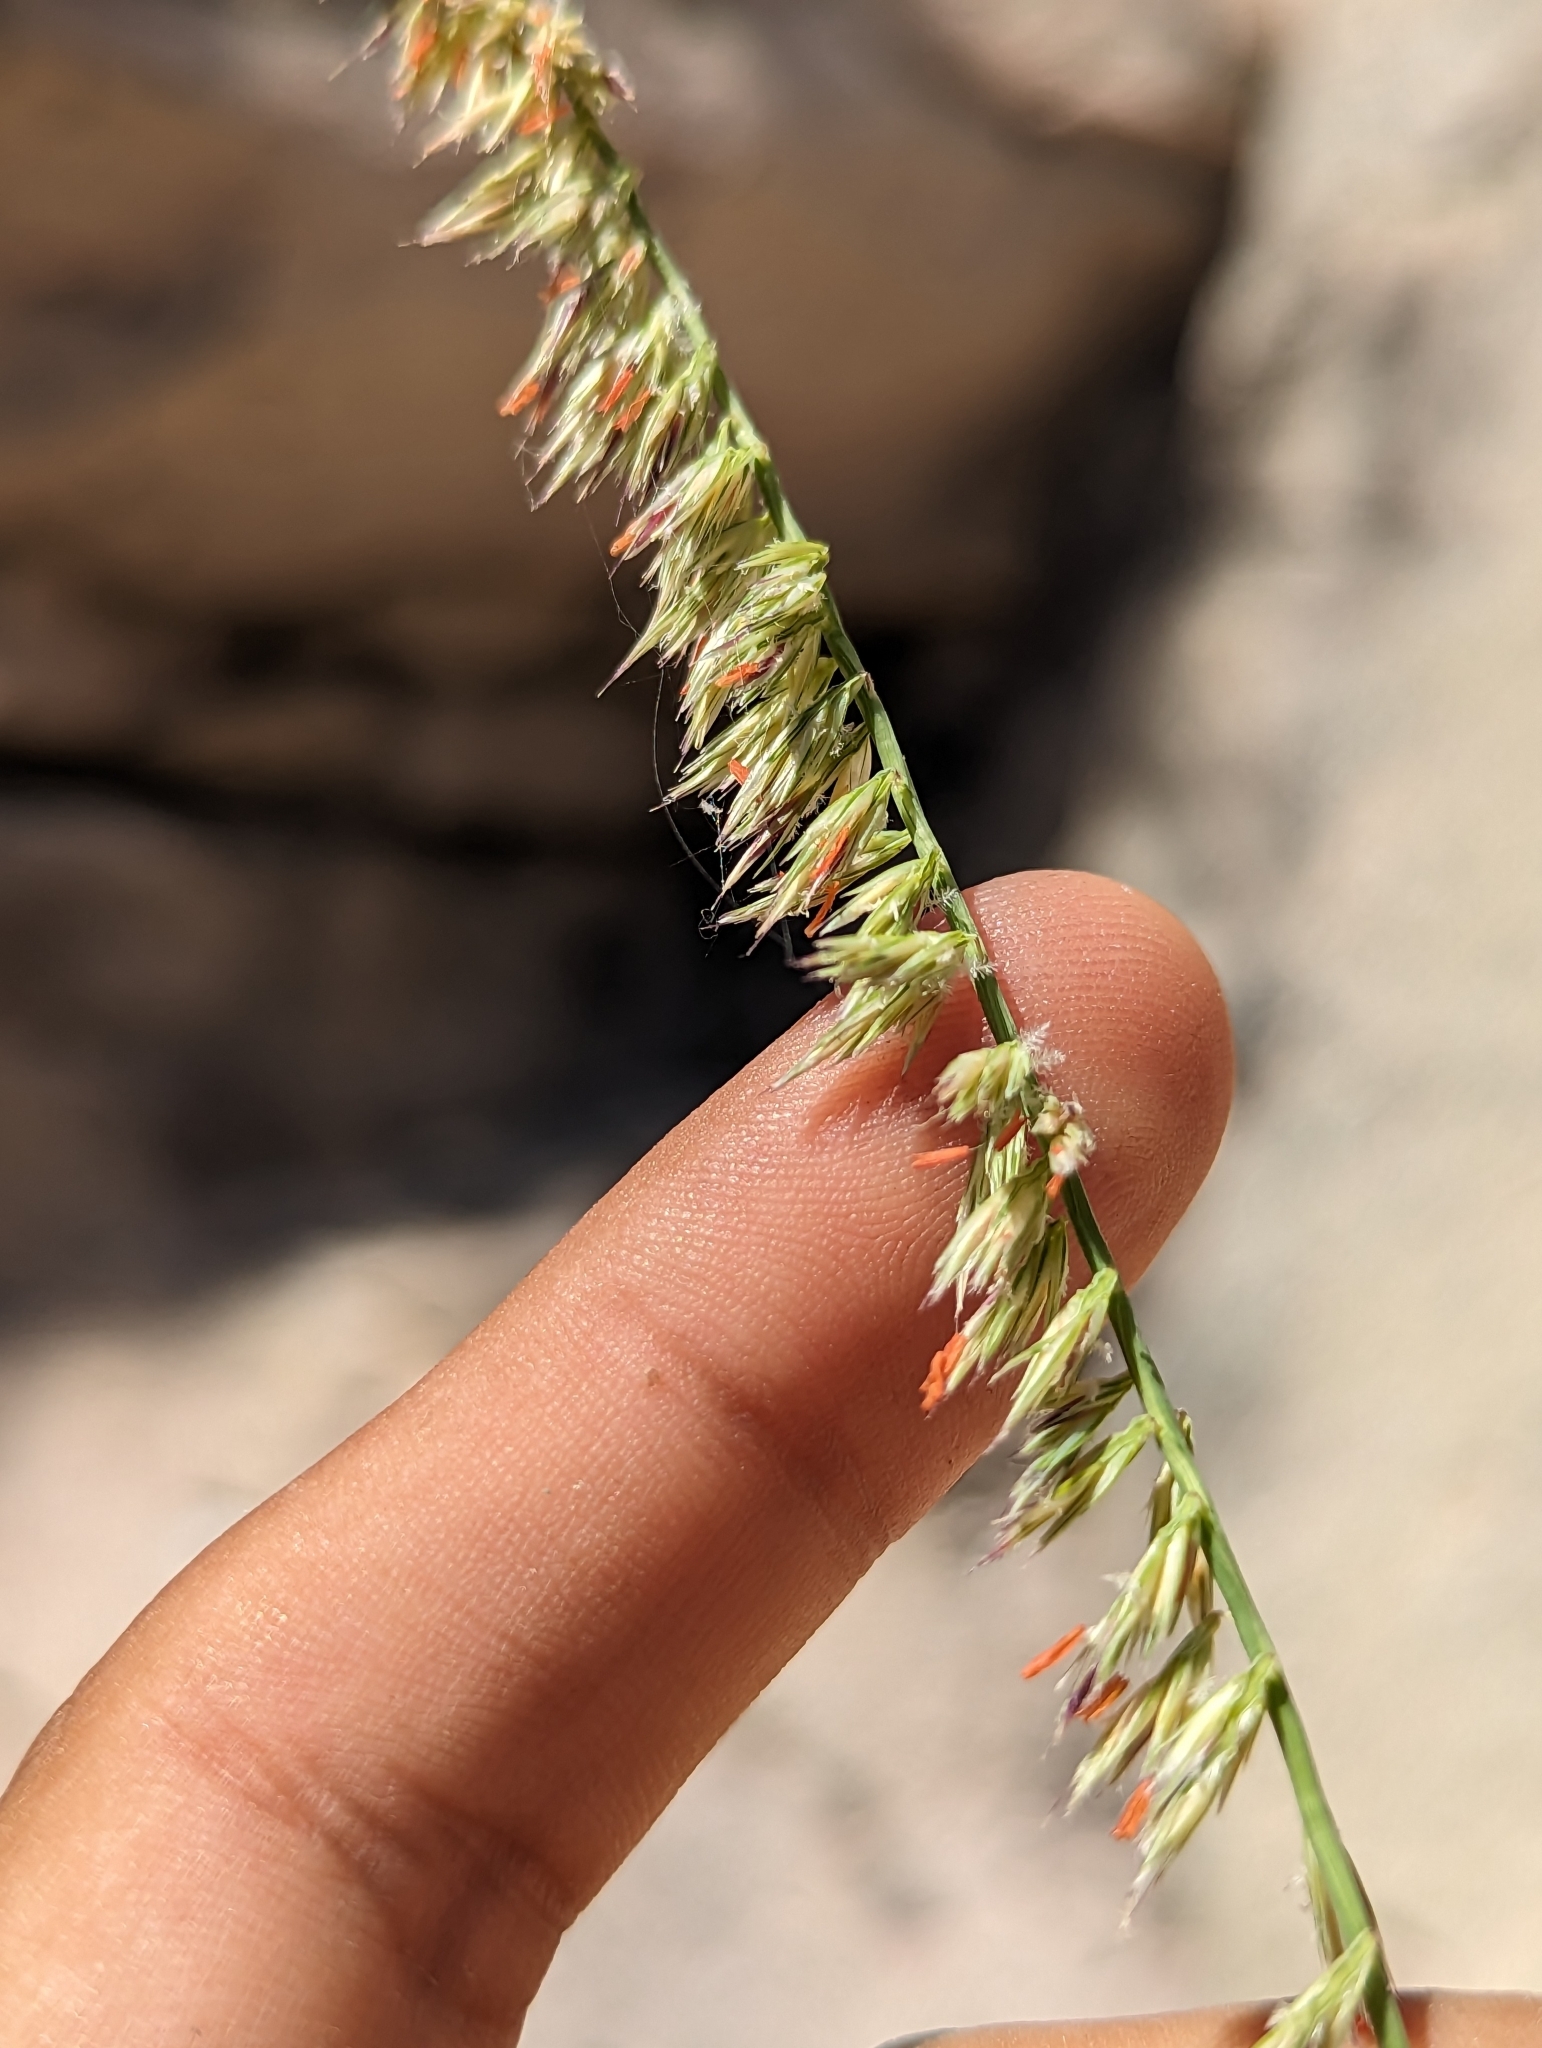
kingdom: Plantae
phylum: Tracheophyta
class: Liliopsida
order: Poales
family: Poaceae
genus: Bouteloua
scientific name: Bouteloua reflexa
